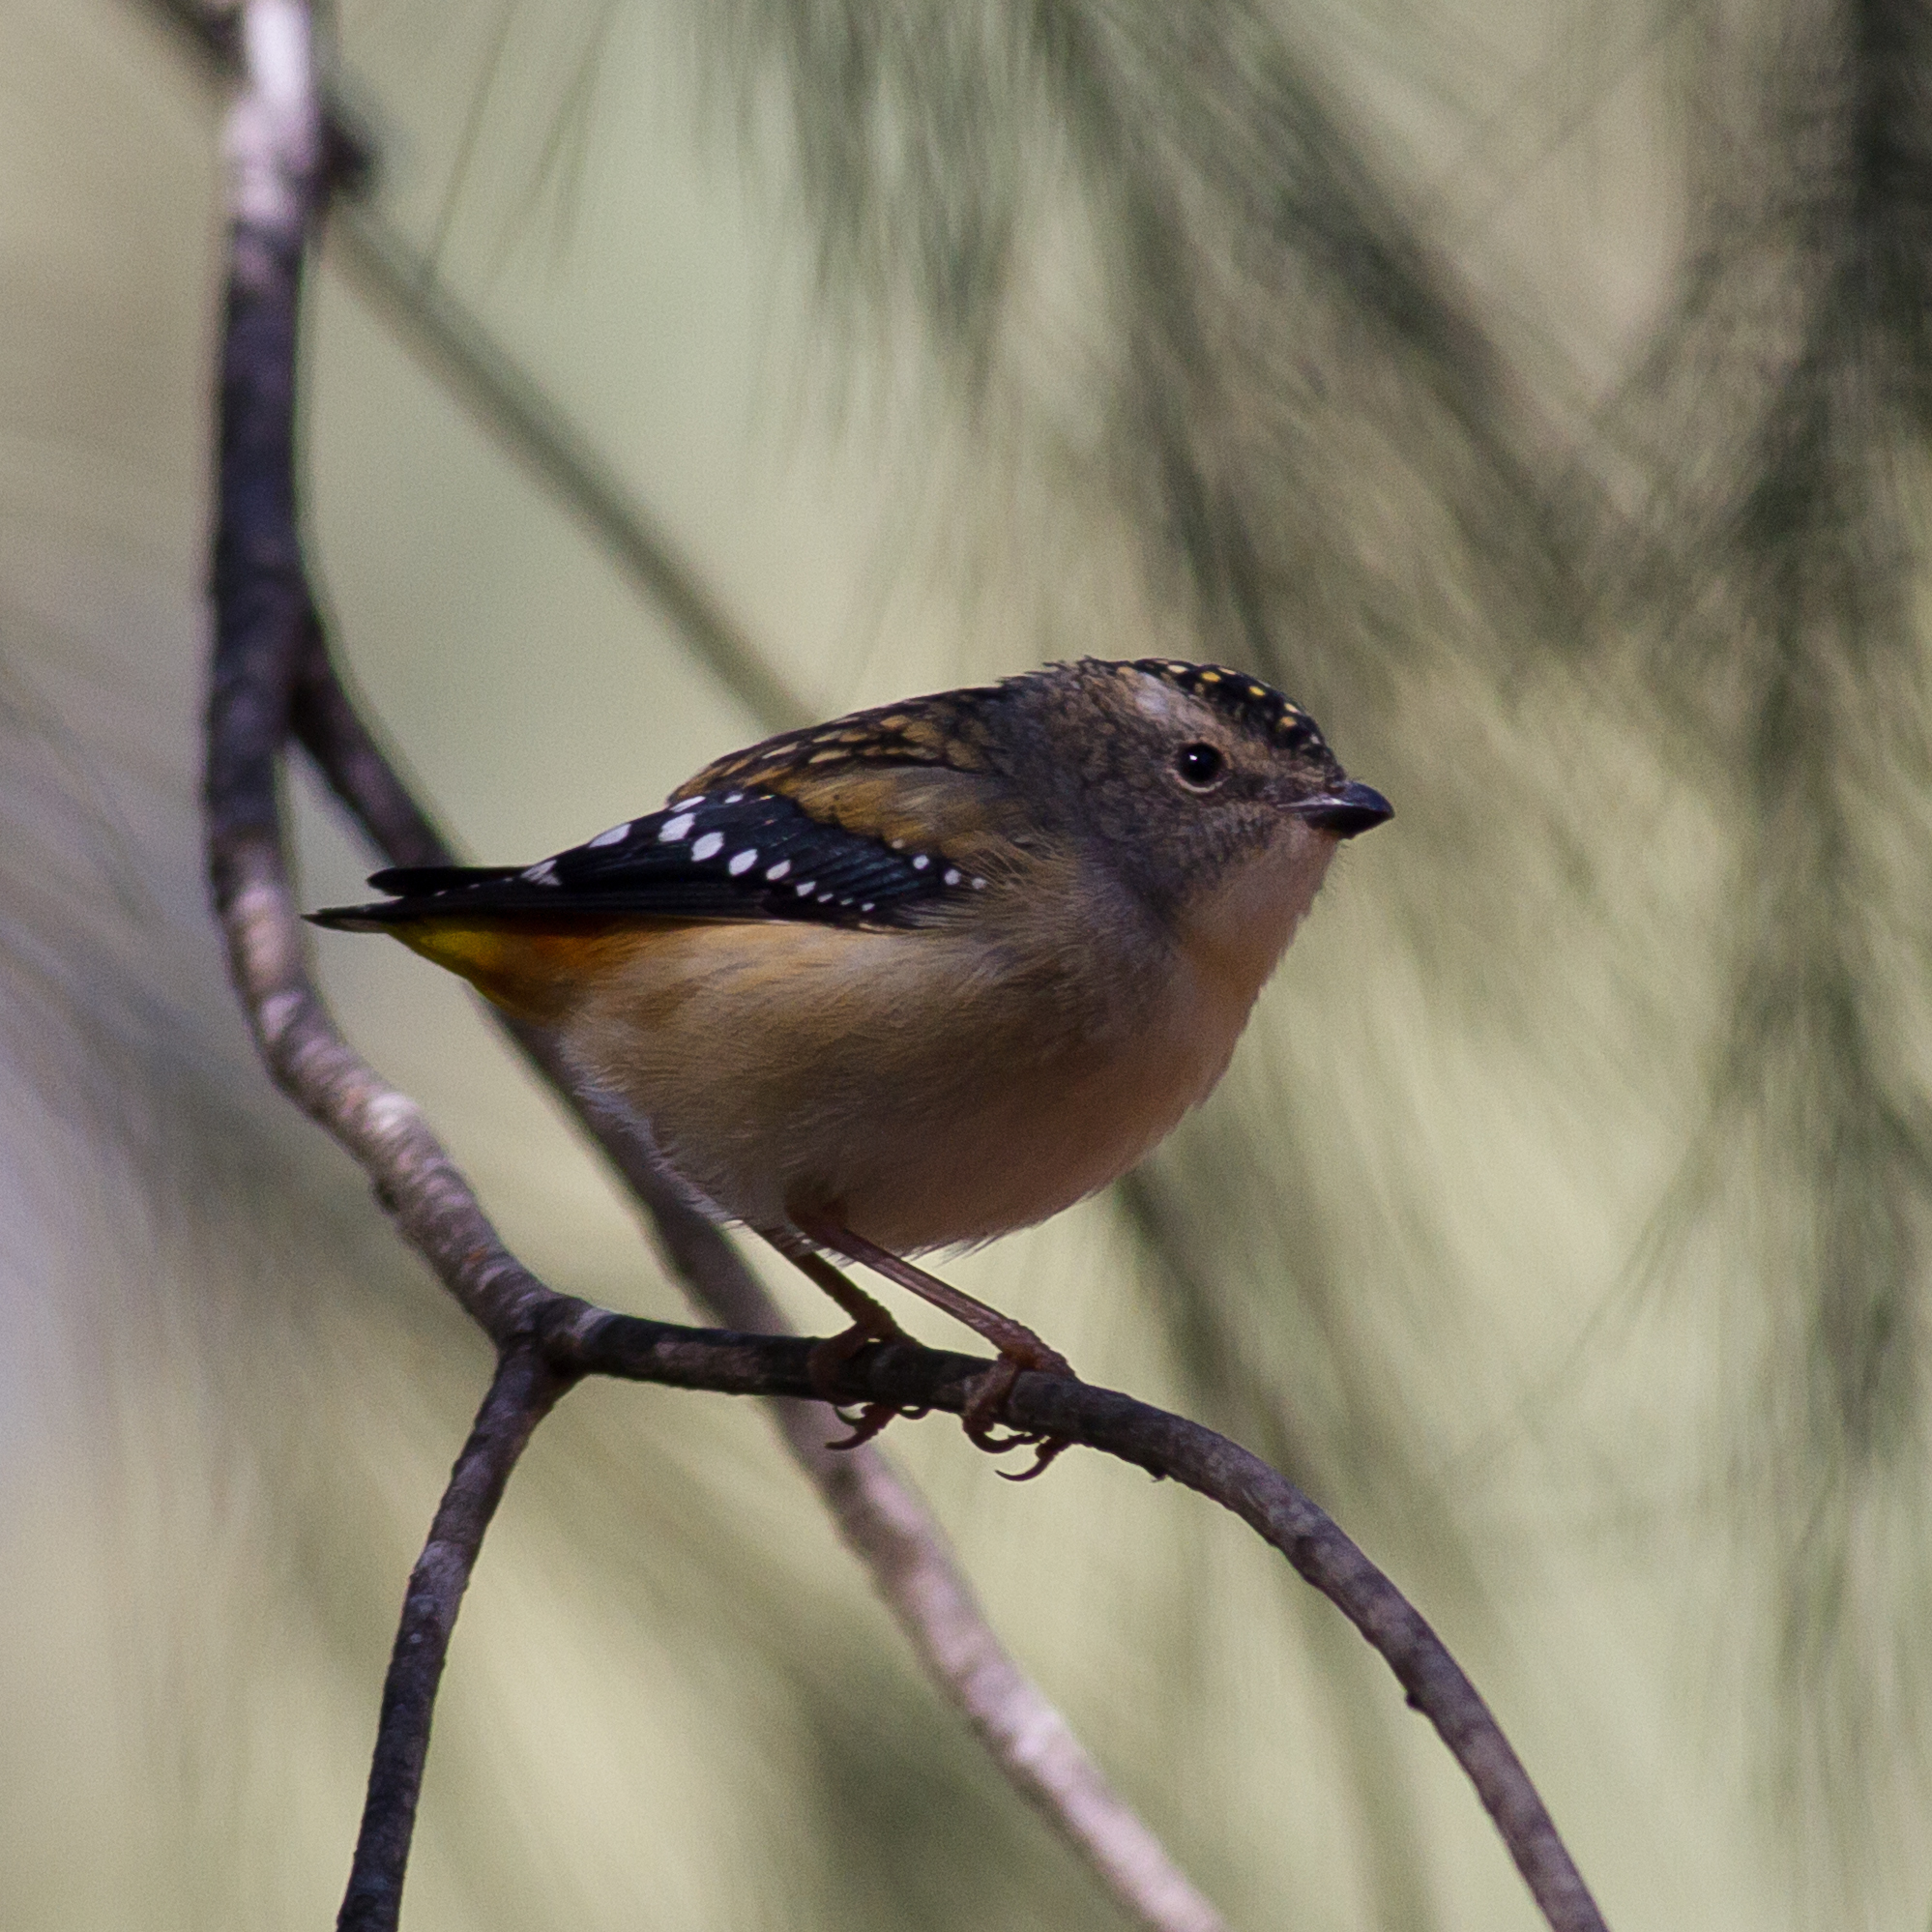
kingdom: Animalia
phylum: Chordata
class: Aves
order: Passeriformes
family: Pardalotidae
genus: Pardalotus
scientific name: Pardalotus punctatus
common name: Spotted pardalote
